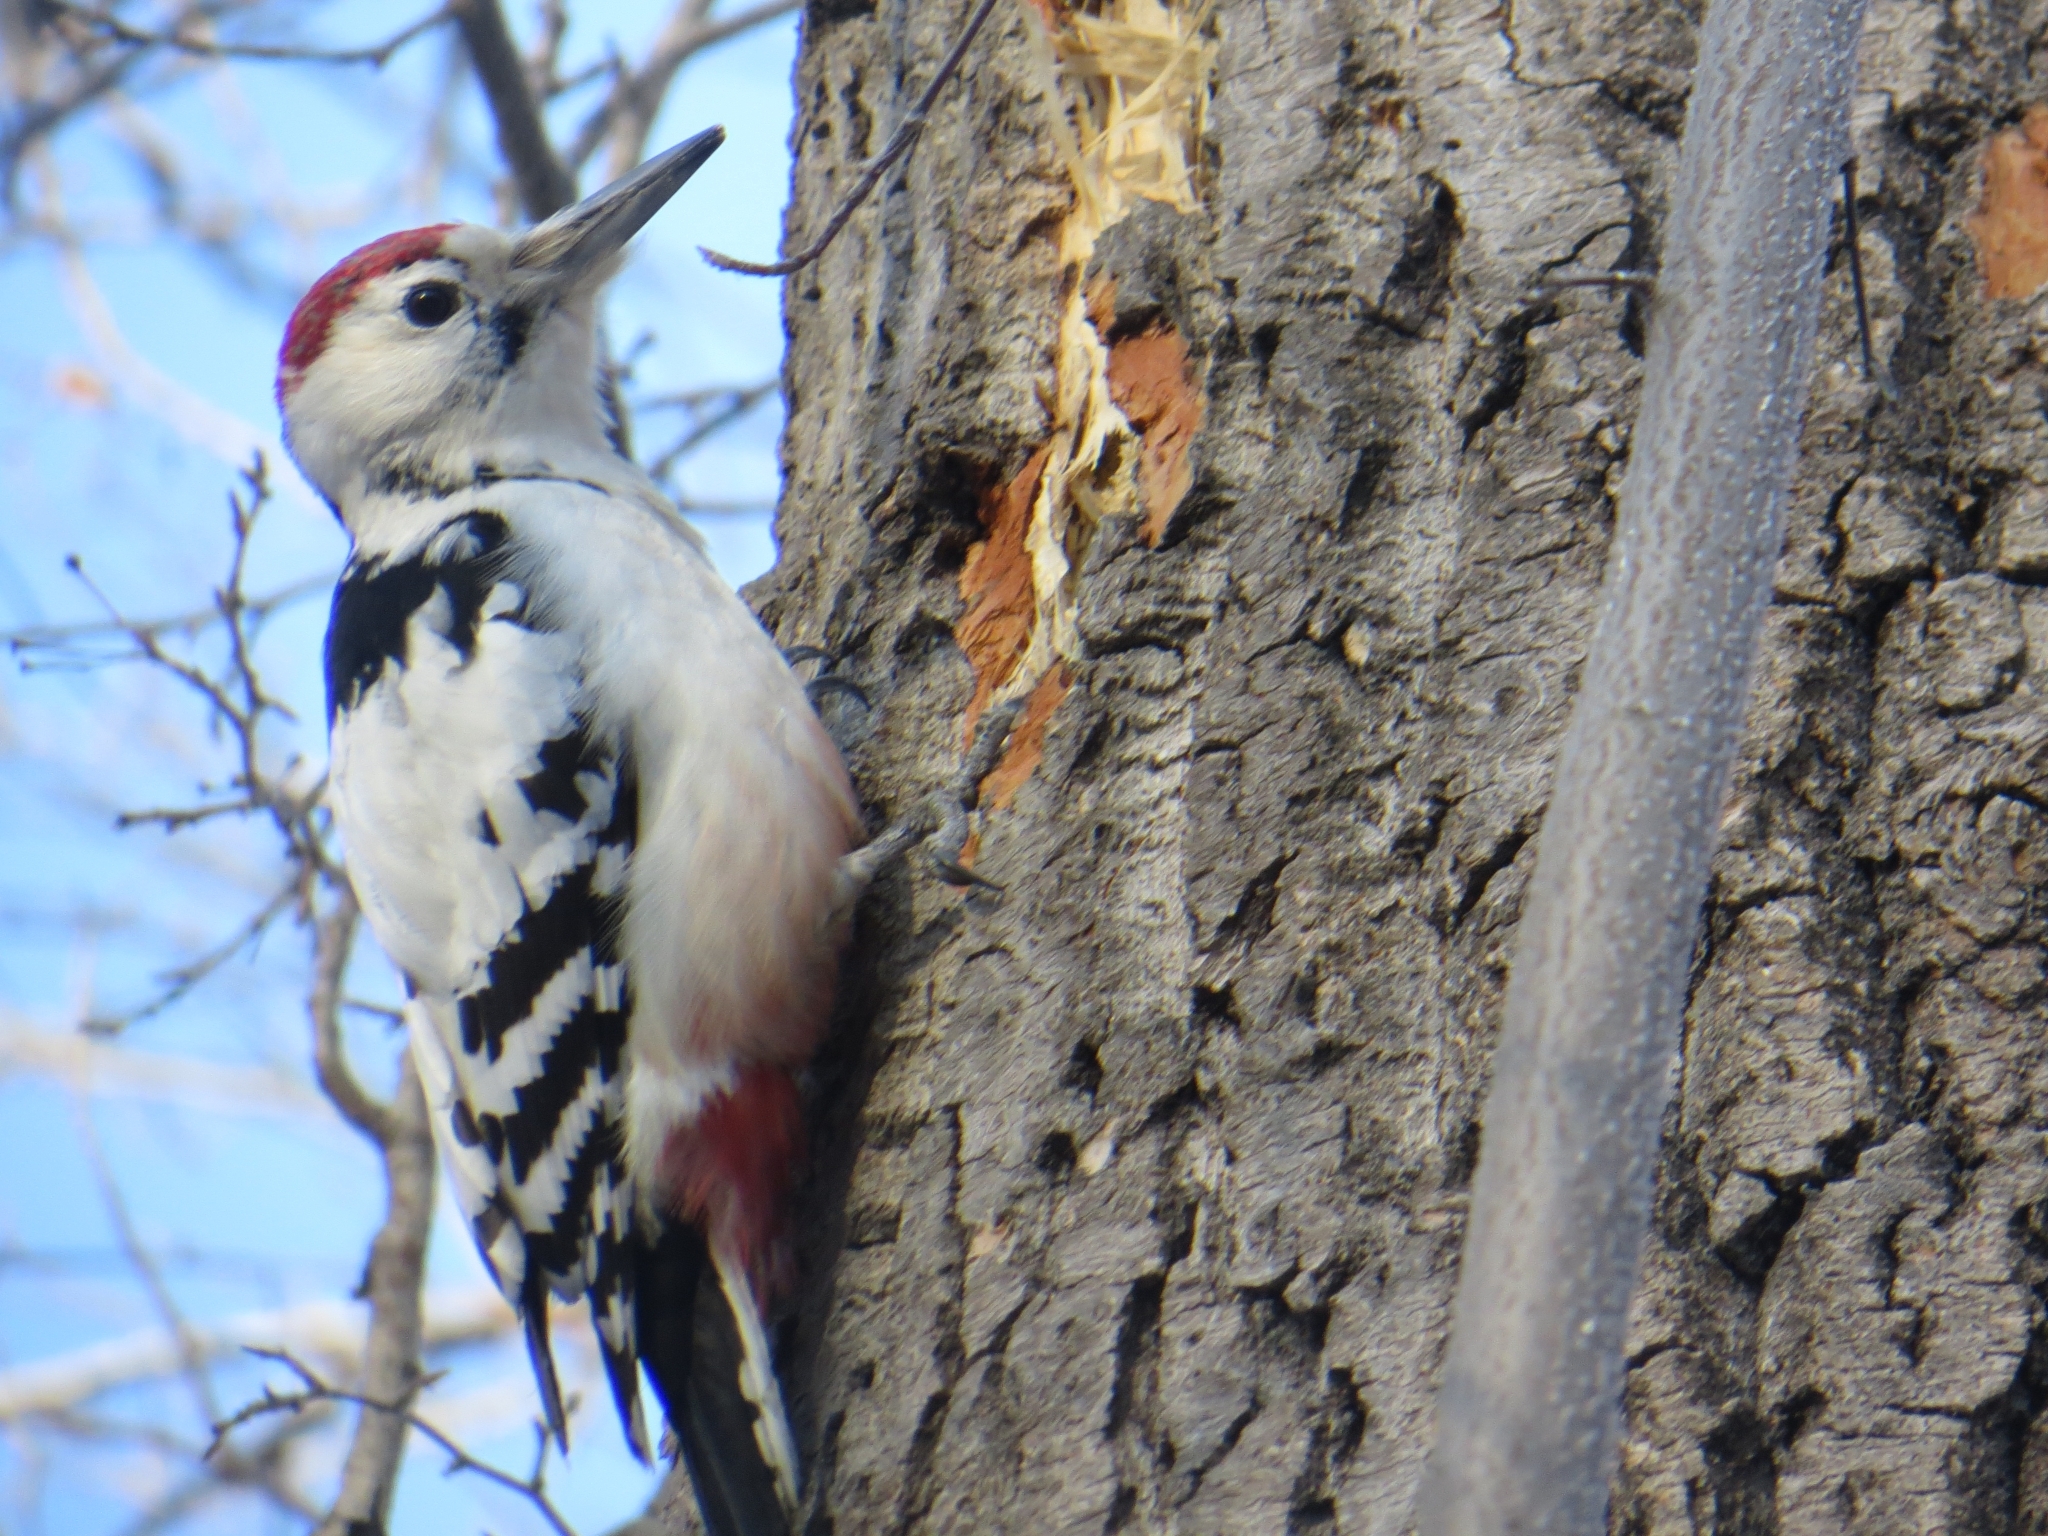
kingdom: Animalia
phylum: Chordata
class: Aves
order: Piciformes
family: Picidae
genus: Dendrocopos
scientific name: Dendrocopos leucotos
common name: White-backed woodpecker
